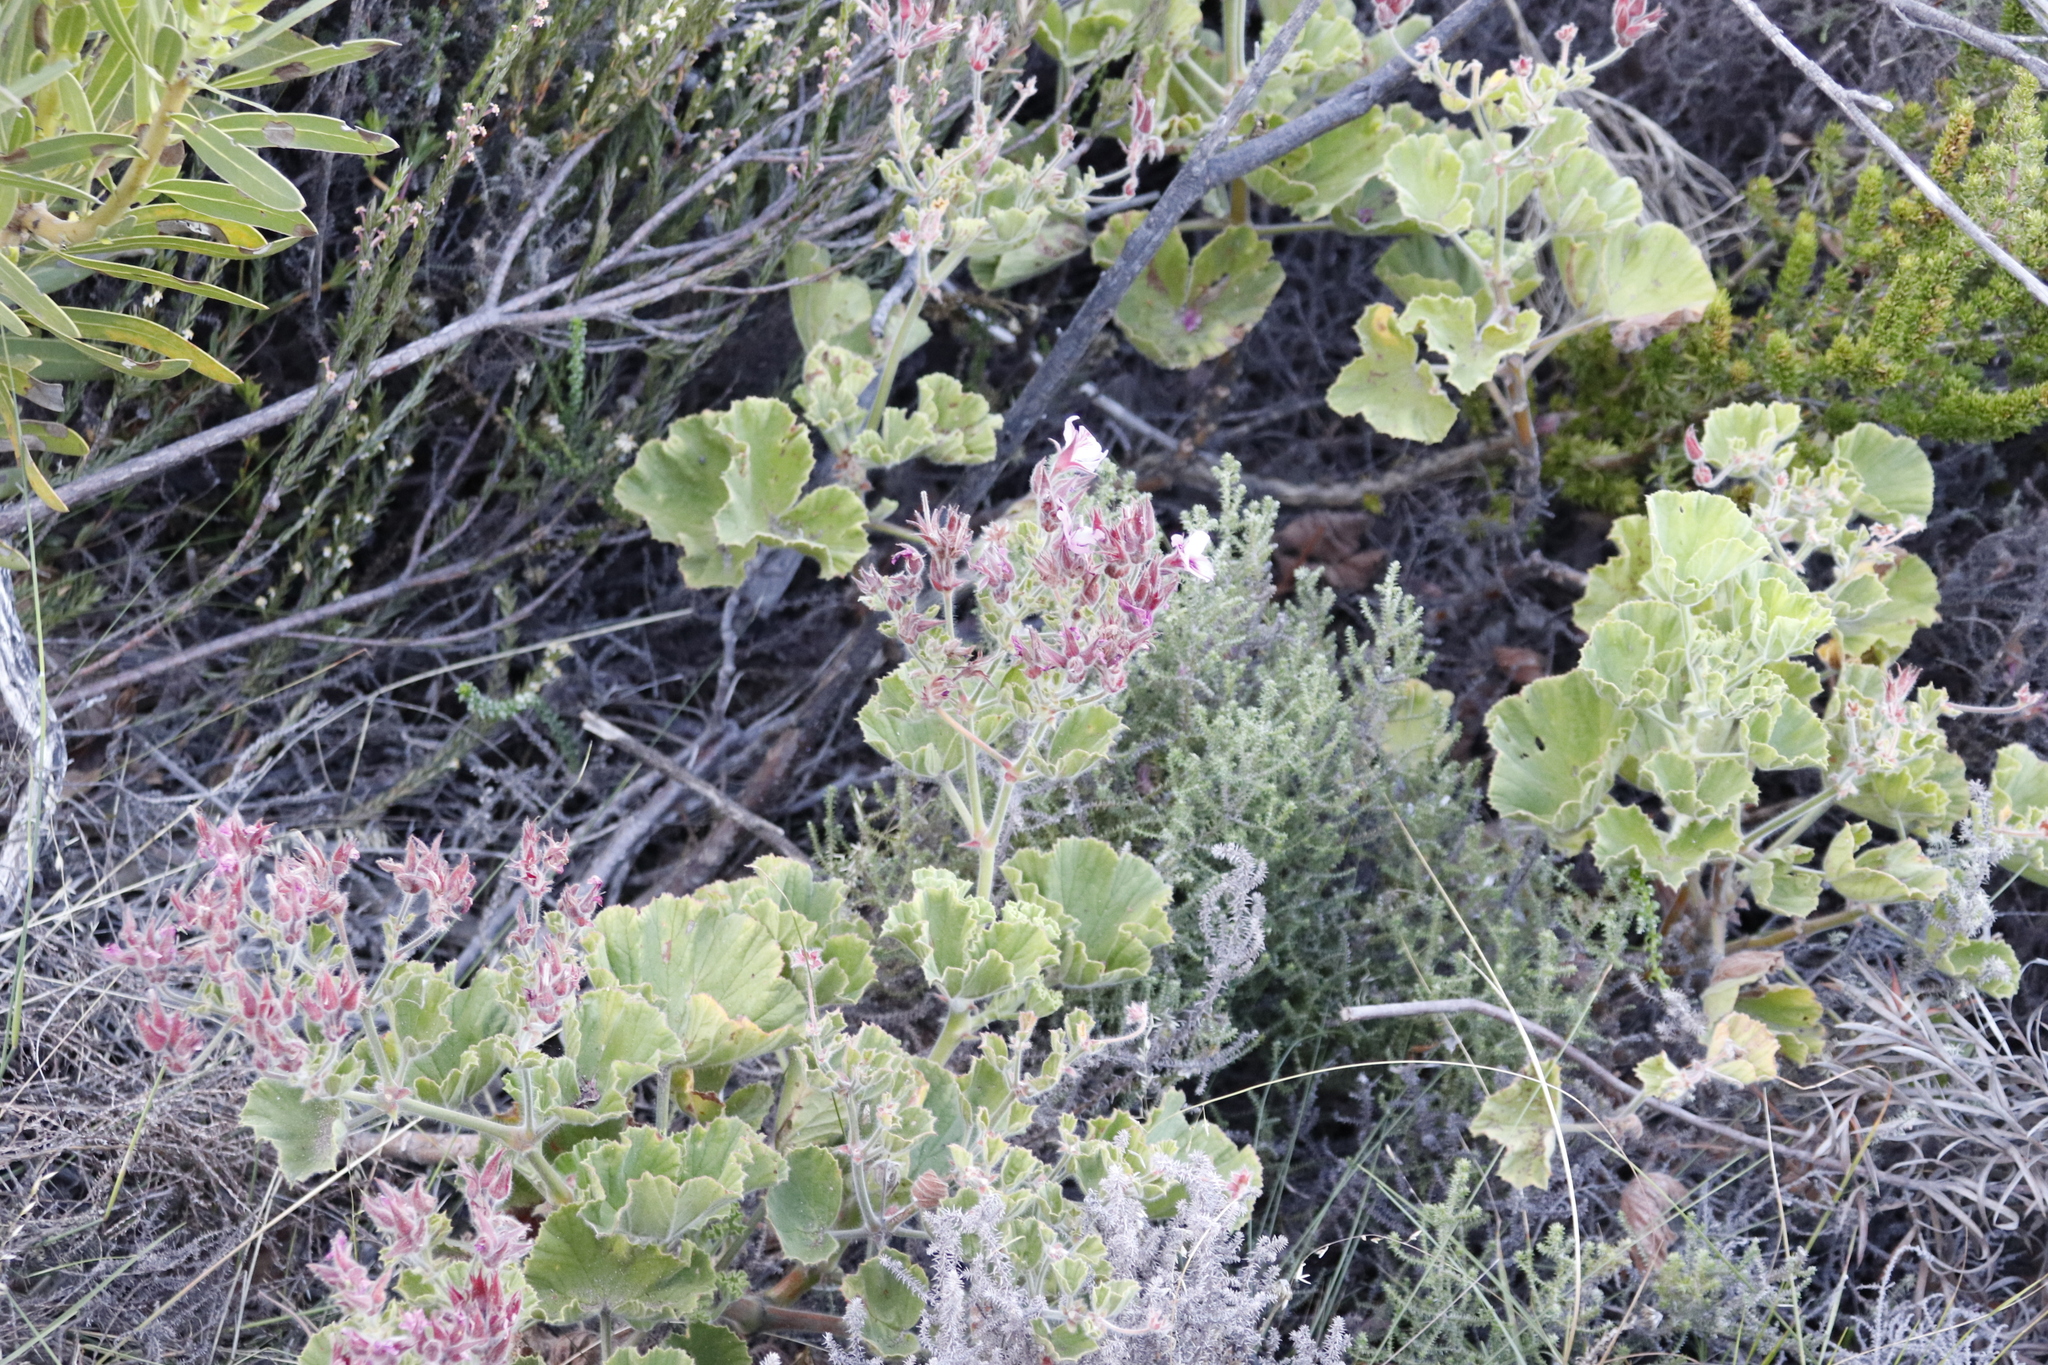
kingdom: Plantae
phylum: Tracheophyta
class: Magnoliopsida
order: Geraniales
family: Geraniaceae
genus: Pelargonium
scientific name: Pelargonium cucullatum
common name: Tree pelargonium
